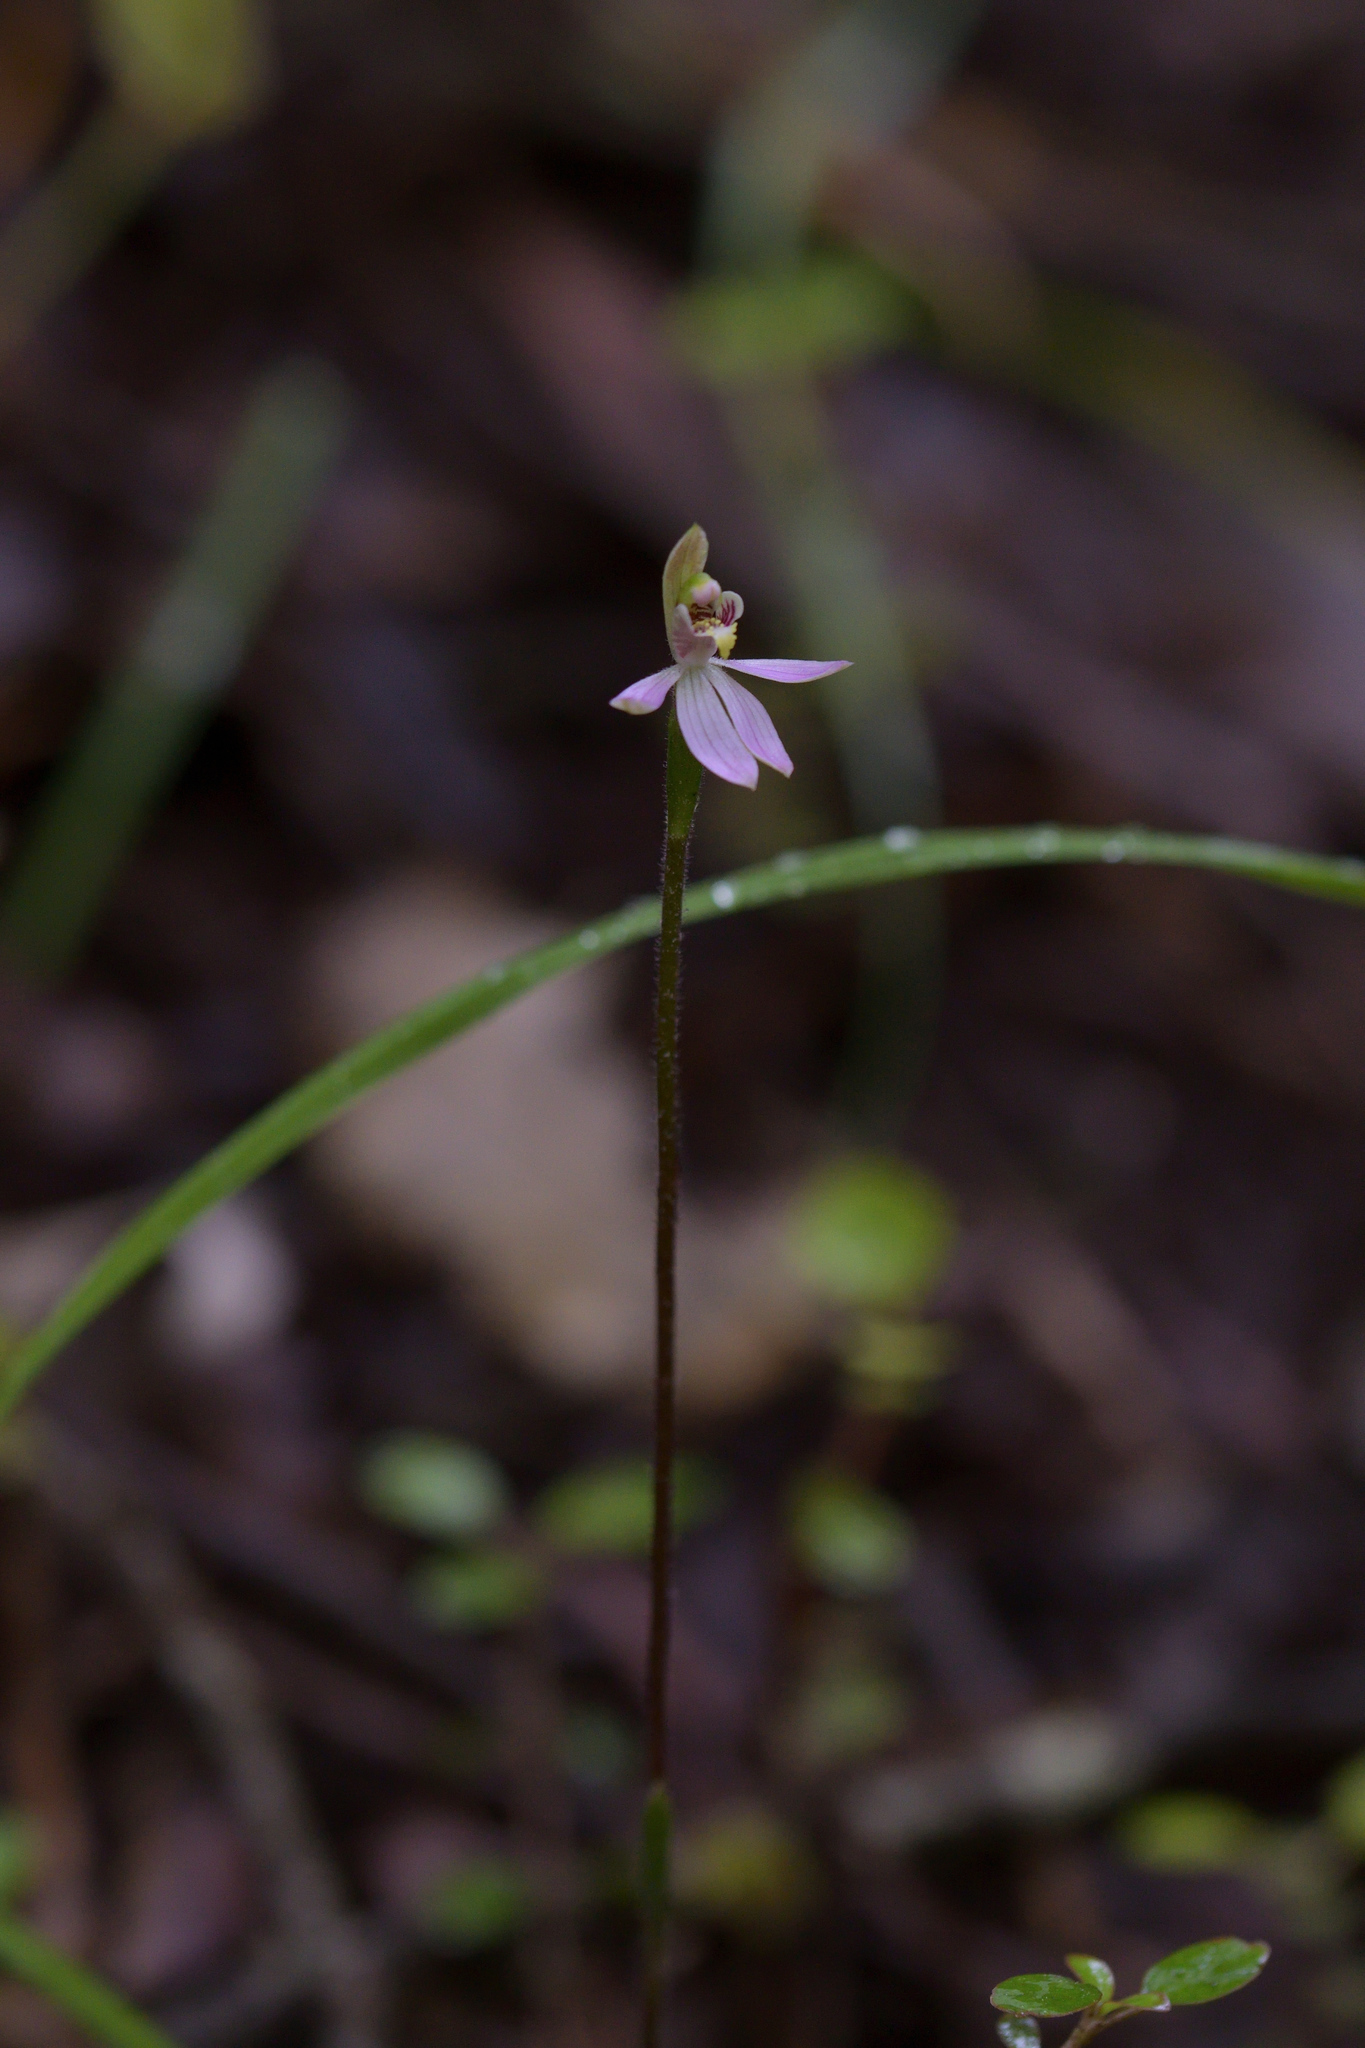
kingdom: Plantae
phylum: Tracheophyta
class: Liliopsida
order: Asparagales
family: Orchidaceae
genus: Caladenia
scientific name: Caladenia variegata
